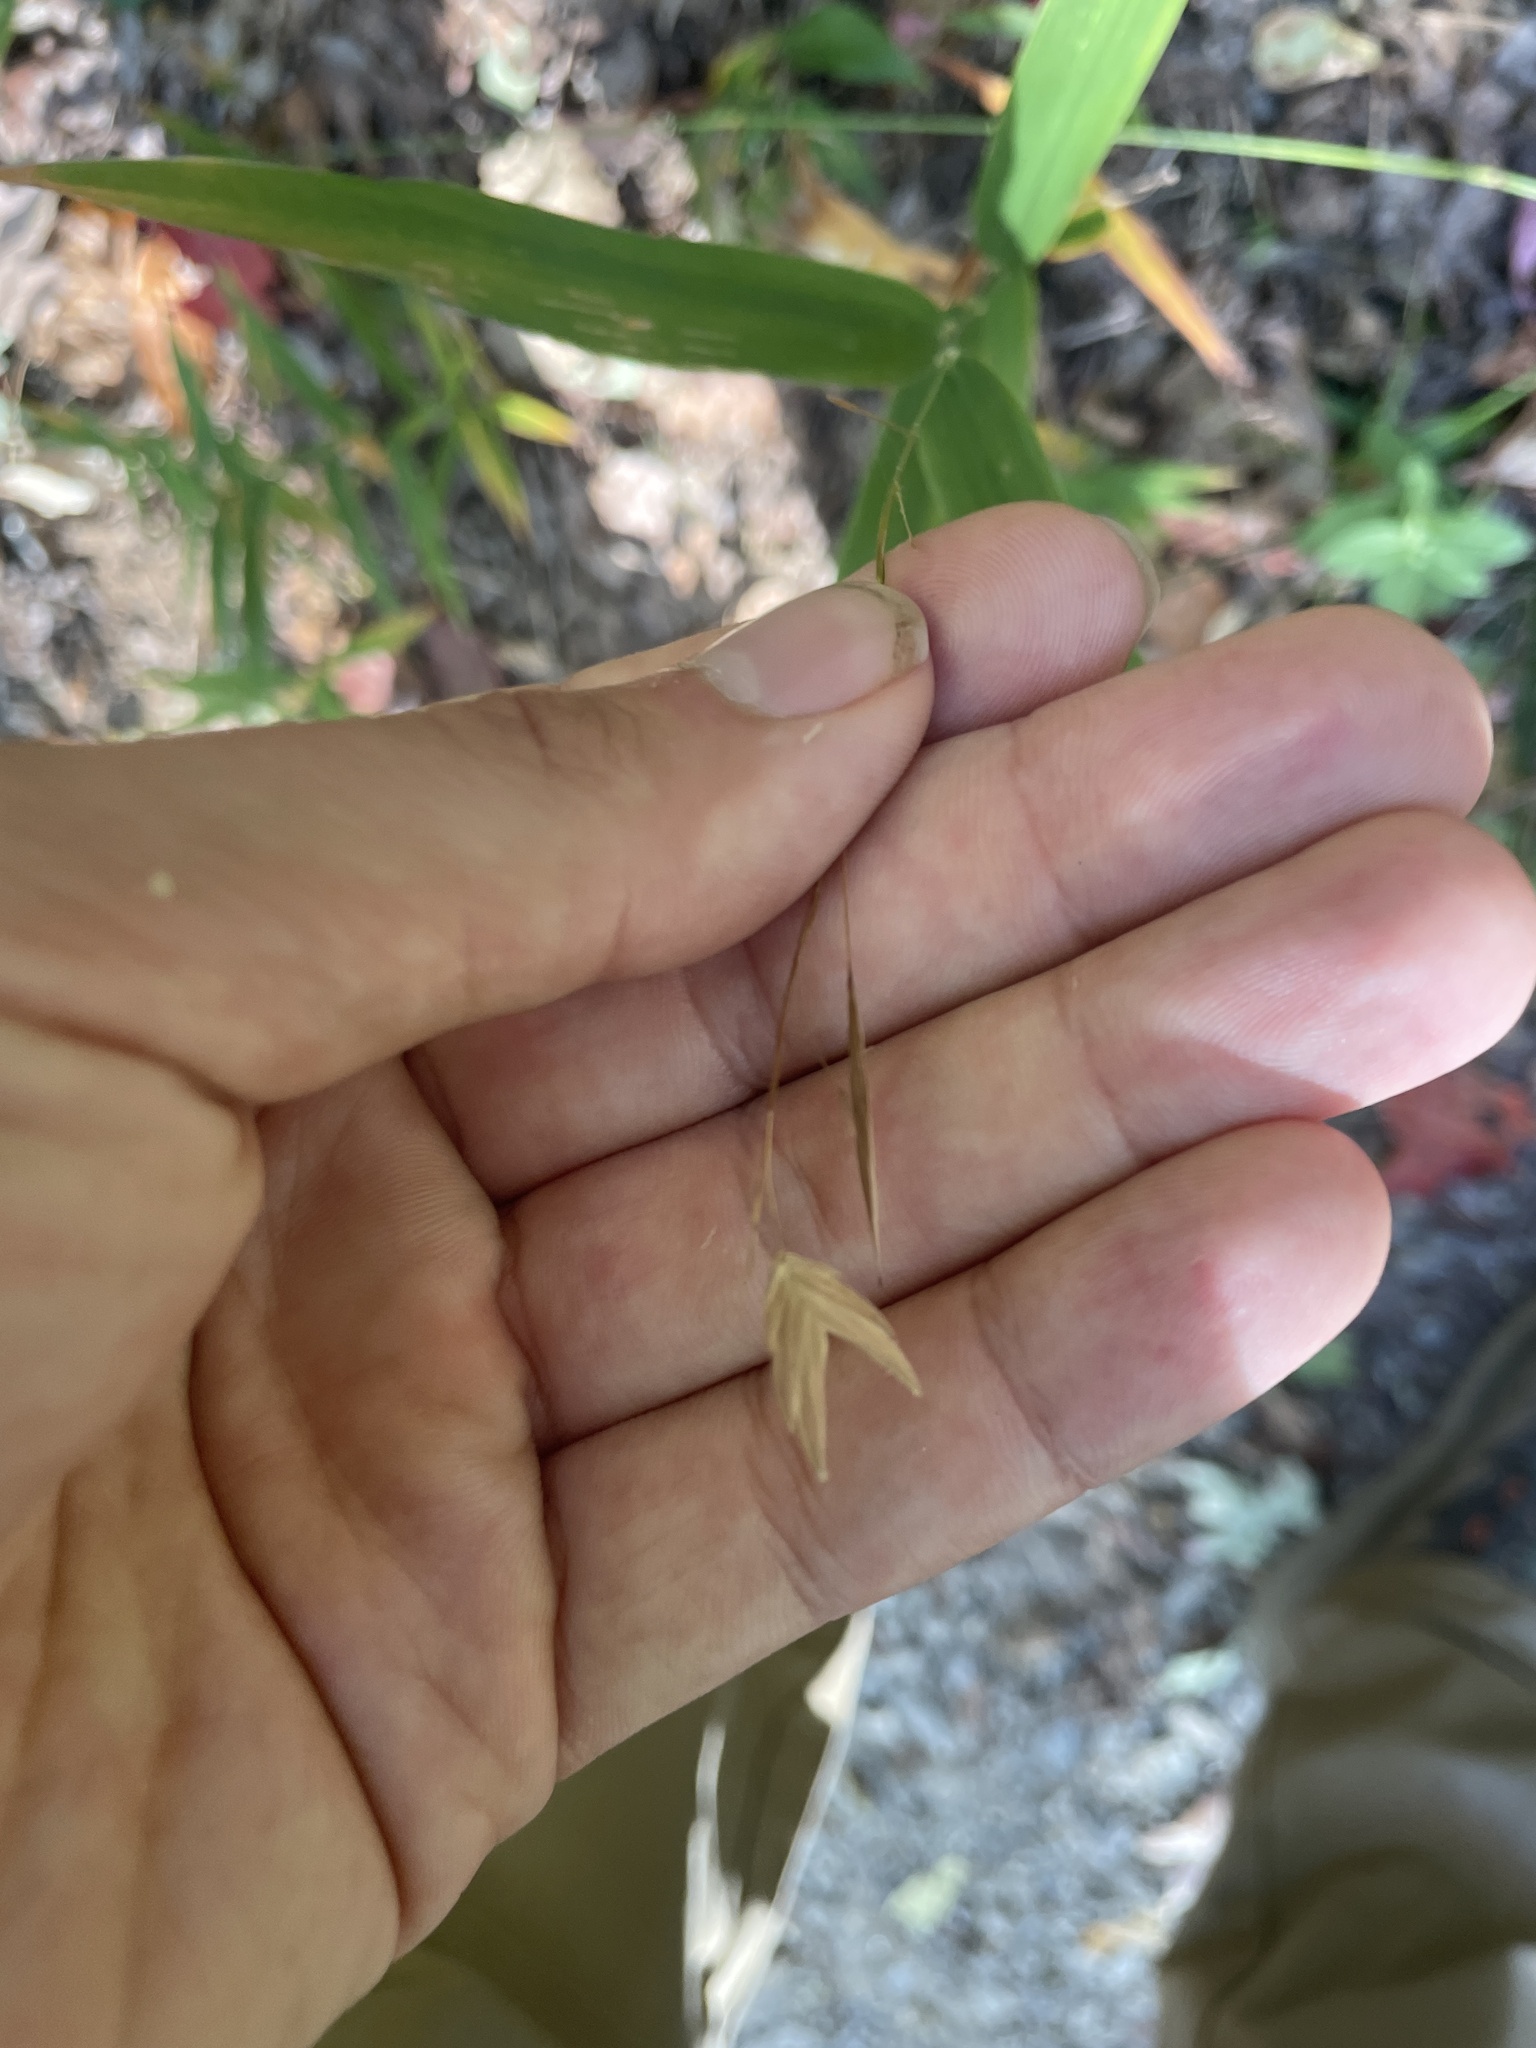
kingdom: Plantae
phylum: Tracheophyta
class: Liliopsida
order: Poales
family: Poaceae
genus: Chasmanthium
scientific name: Chasmanthium latifolium
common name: Broad-leaved chasmanthium
